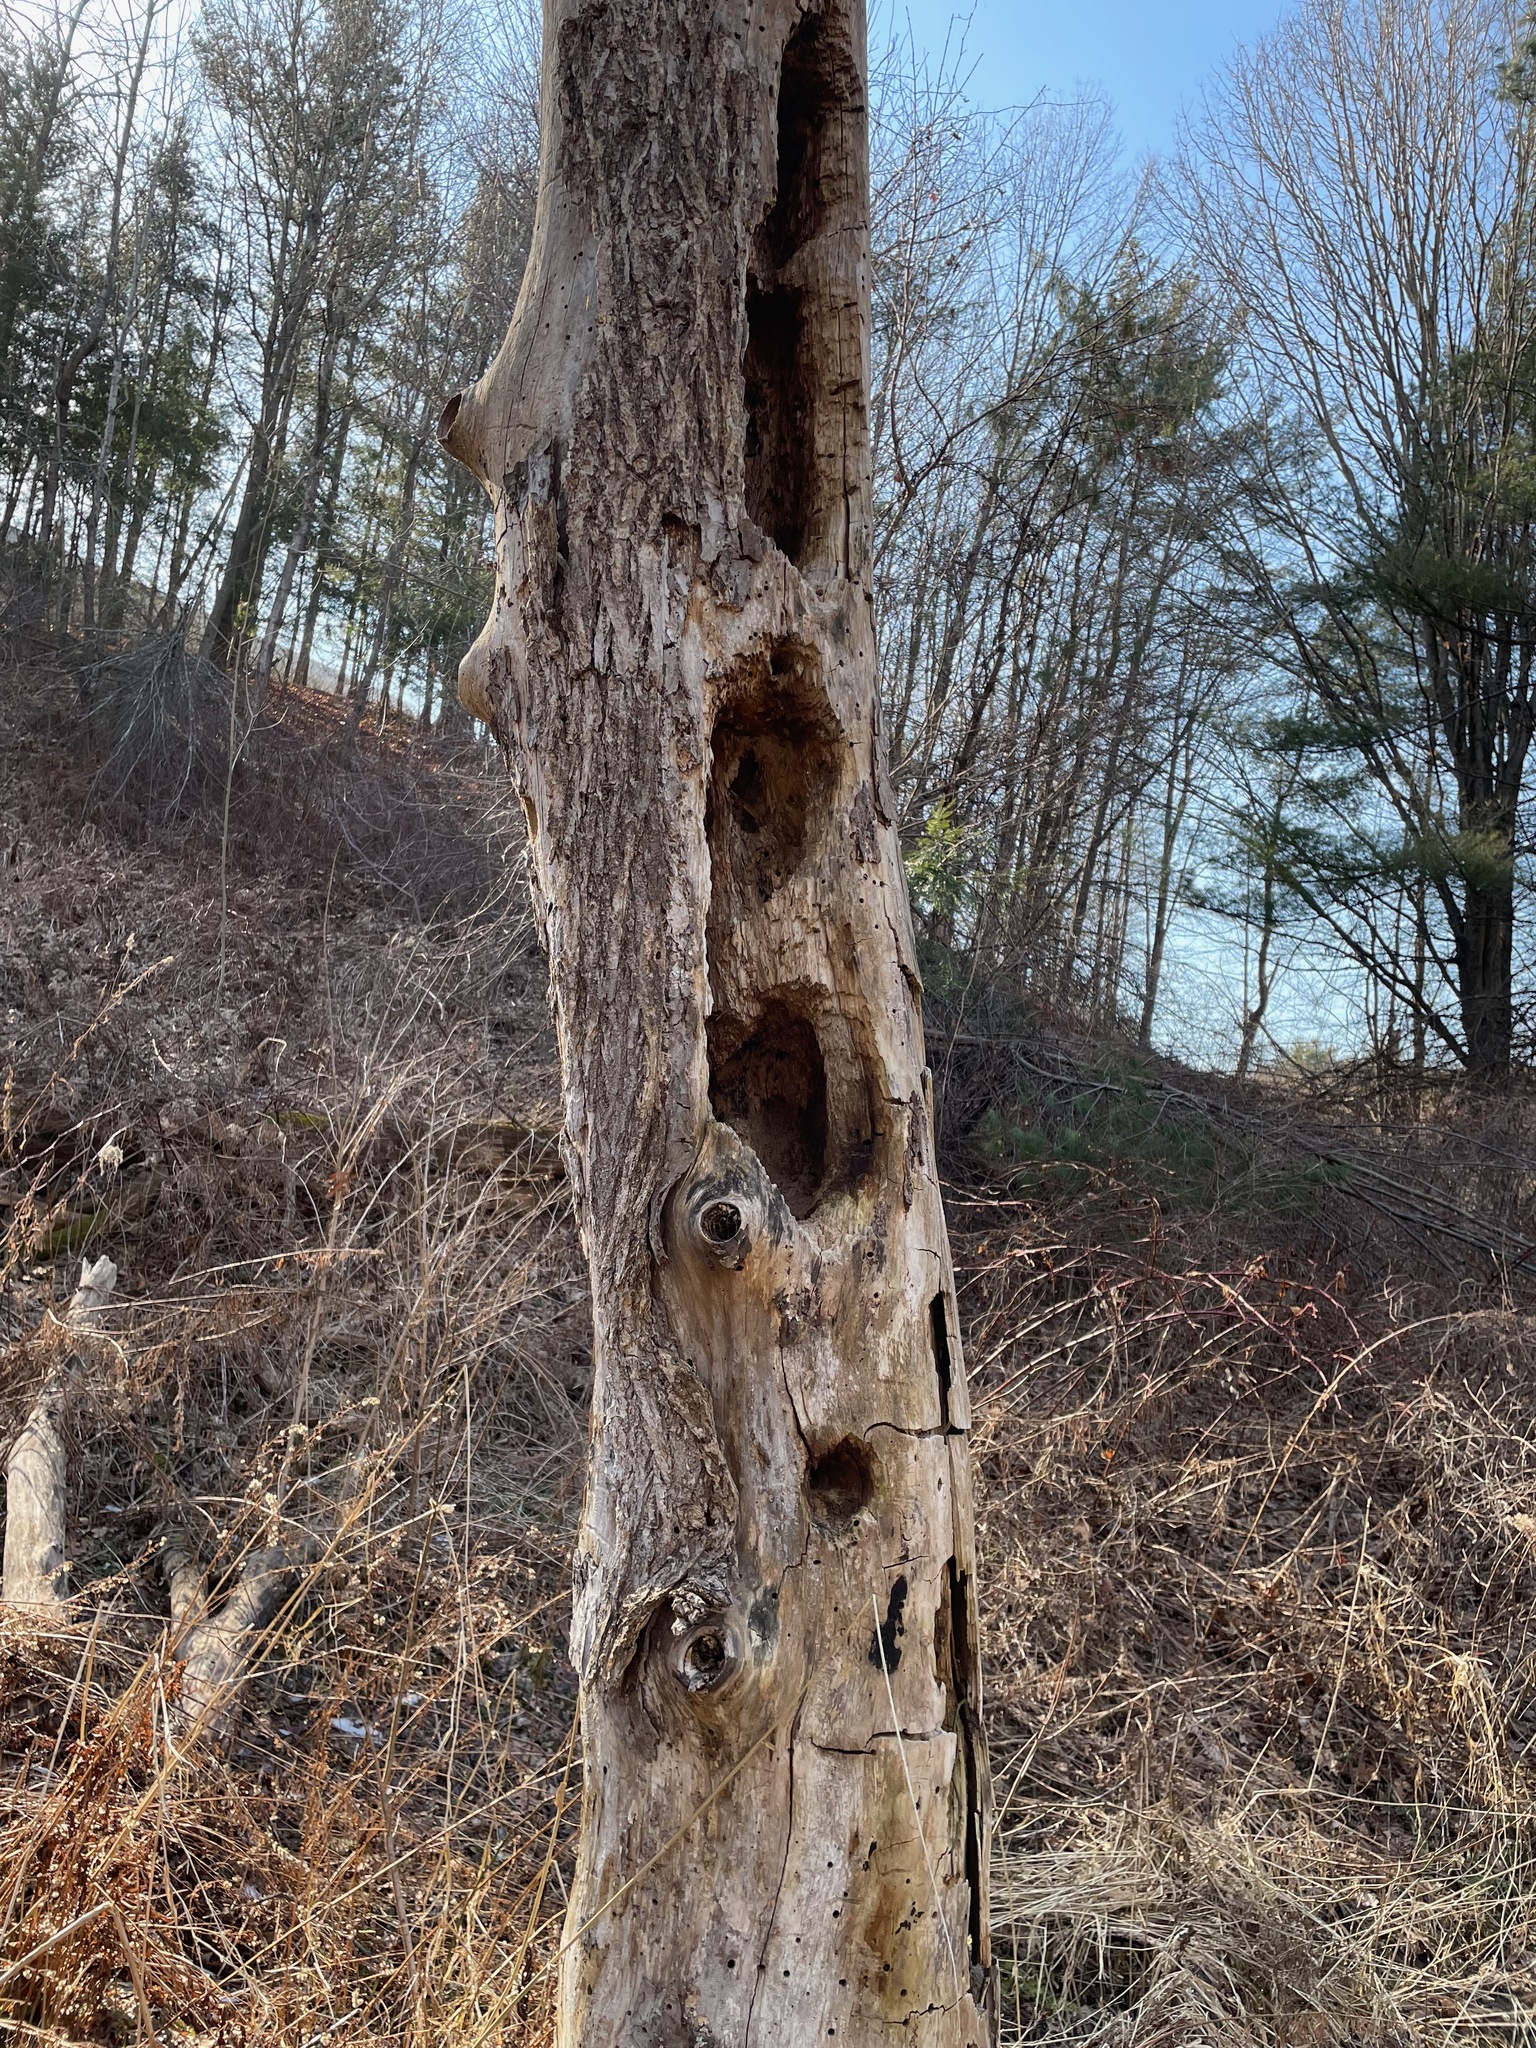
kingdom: Animalia
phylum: Chordata
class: Aves
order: Piciformes
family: Picidae
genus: Dryocopus
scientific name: Dryocopus pileatus
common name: Pileated woodpecker
